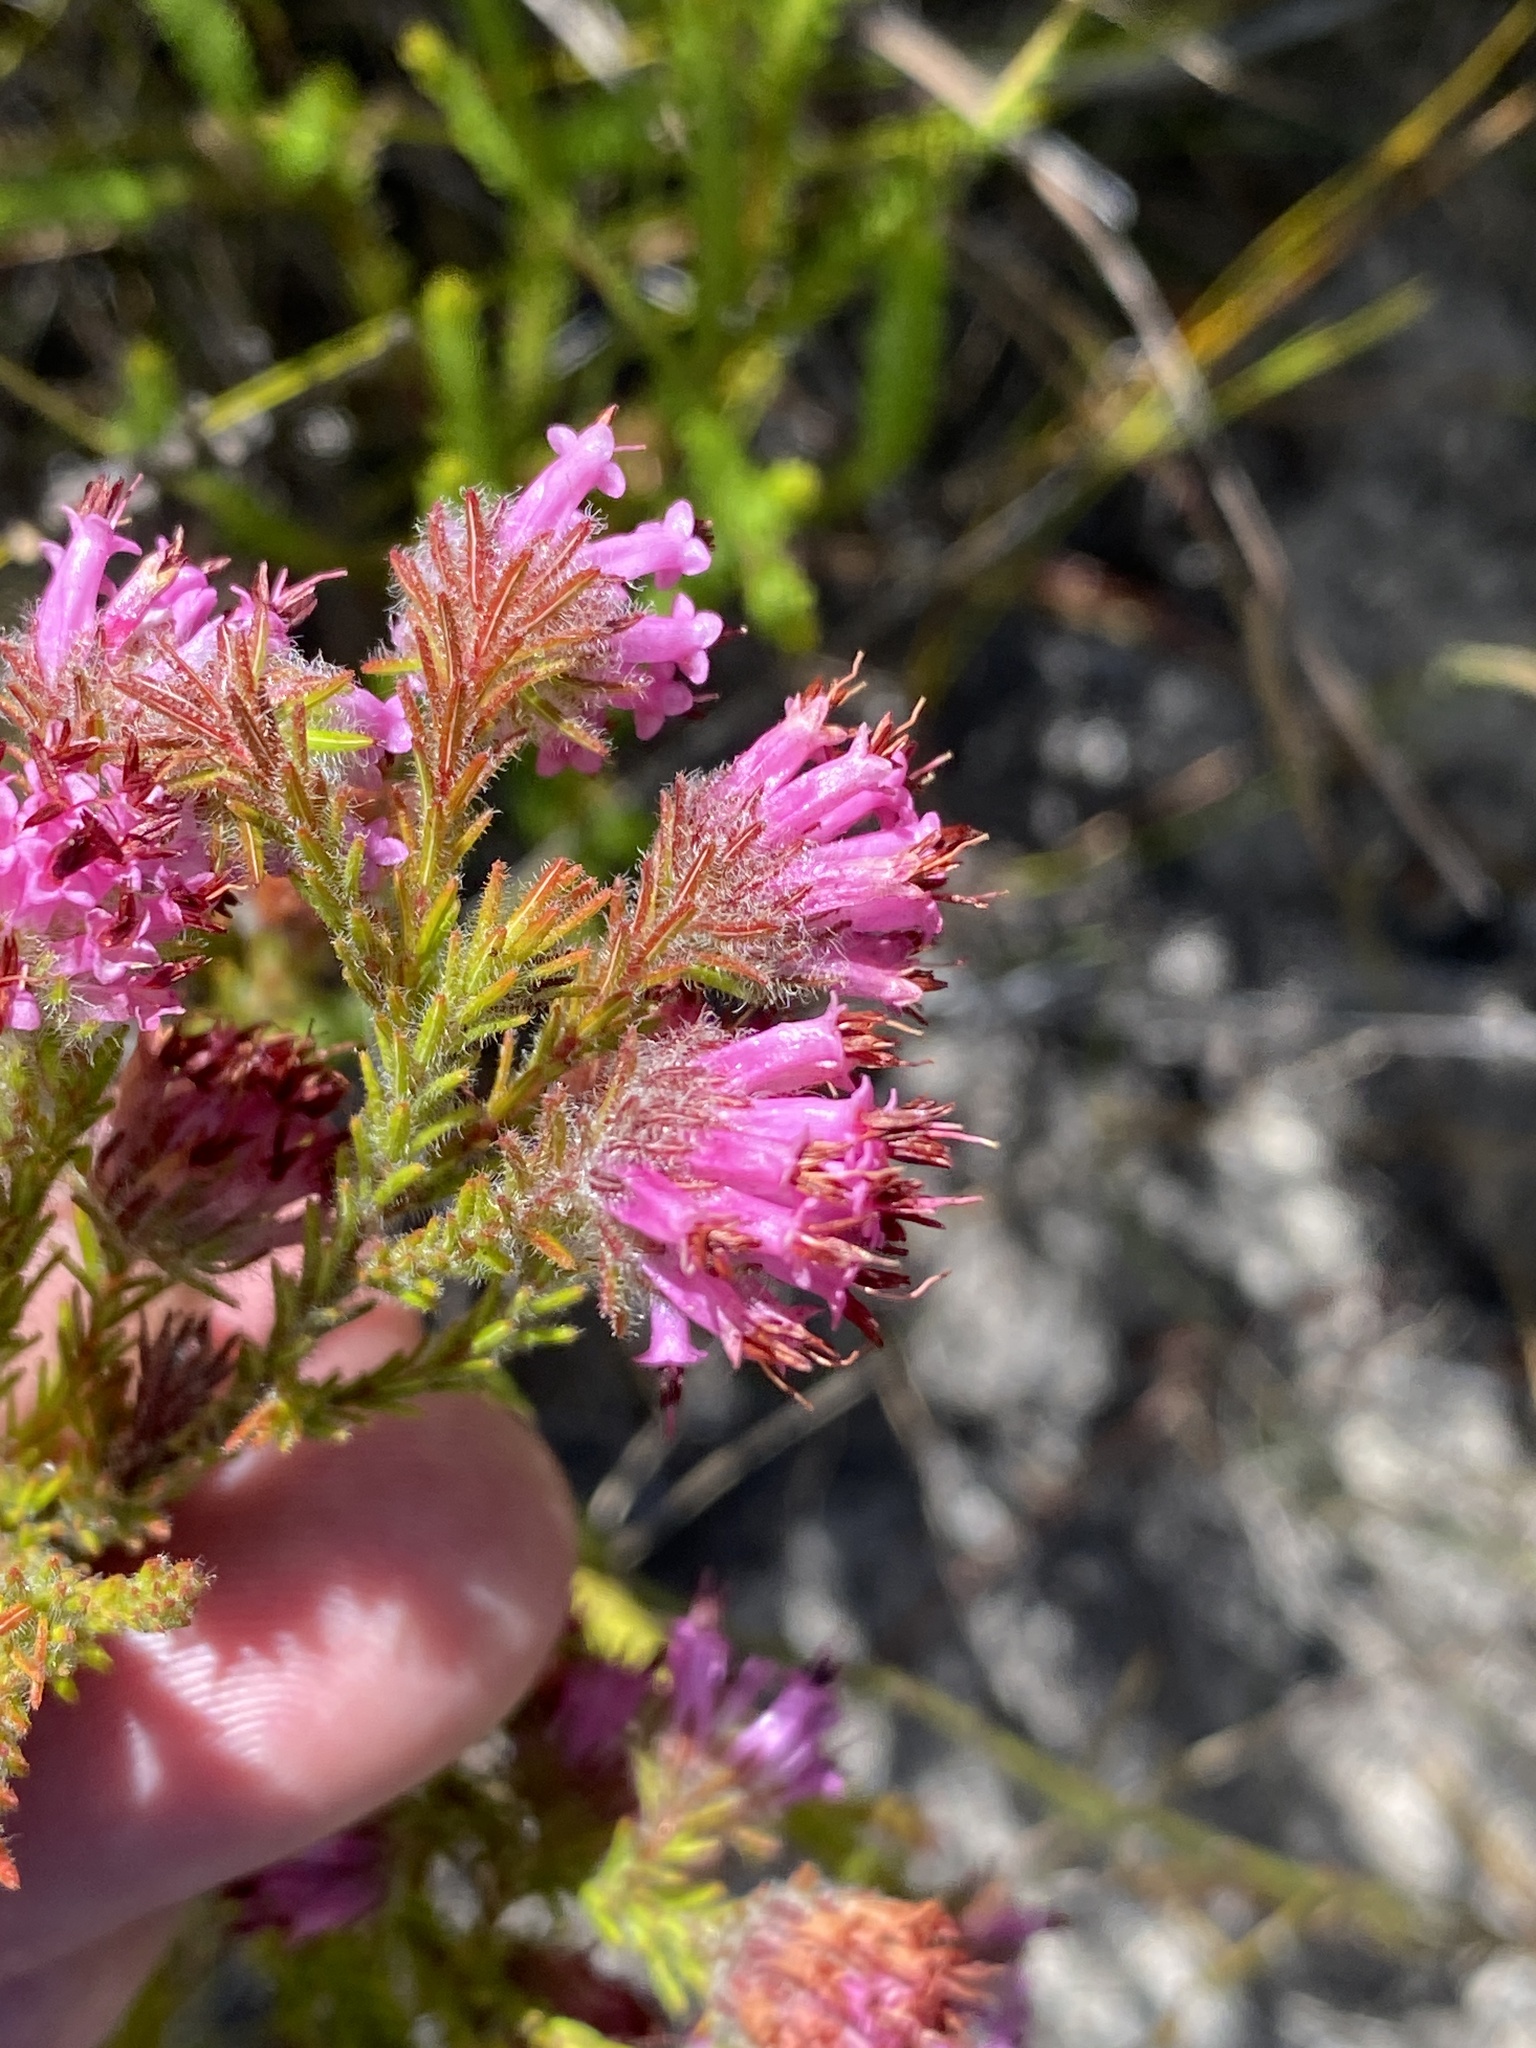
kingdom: Plantae
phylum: Tracheophyta
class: Magnoliopsida
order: Ericales
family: Ericaceae
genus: Erica
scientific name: Erica barbigeroides
